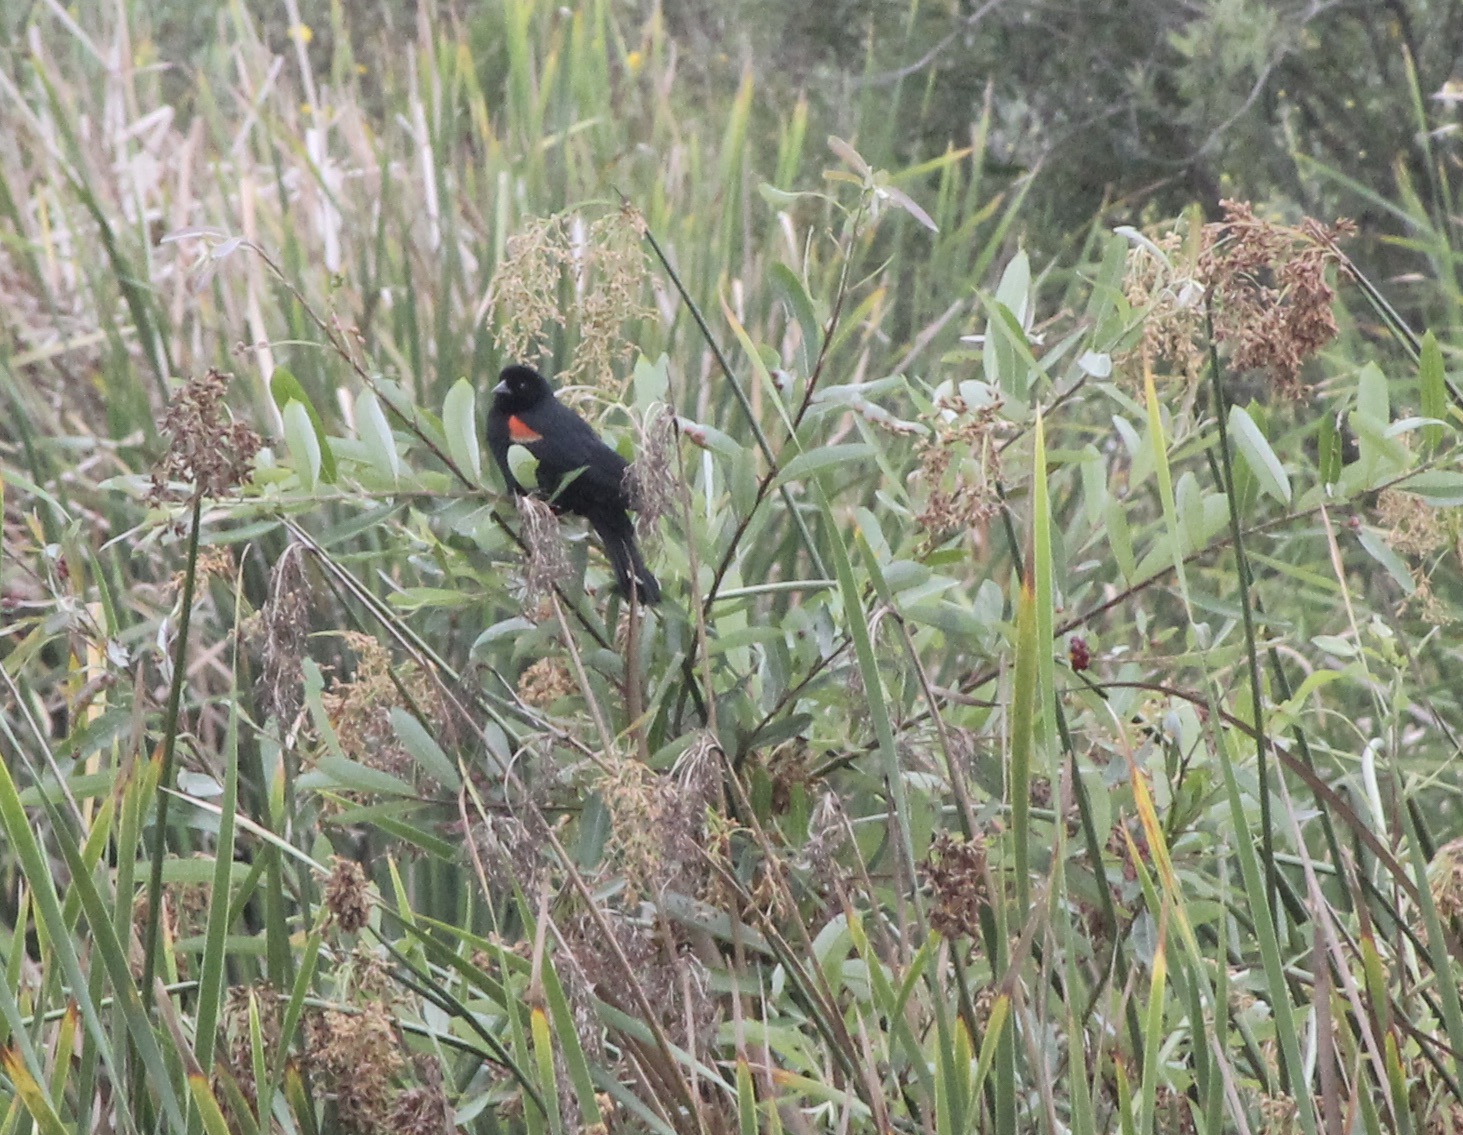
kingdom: Animalia
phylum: Chordata
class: Aves
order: Passeriformes
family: Icteridae
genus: Agelaius
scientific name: Agelaius phoeniceus
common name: Red-winged blackbird
